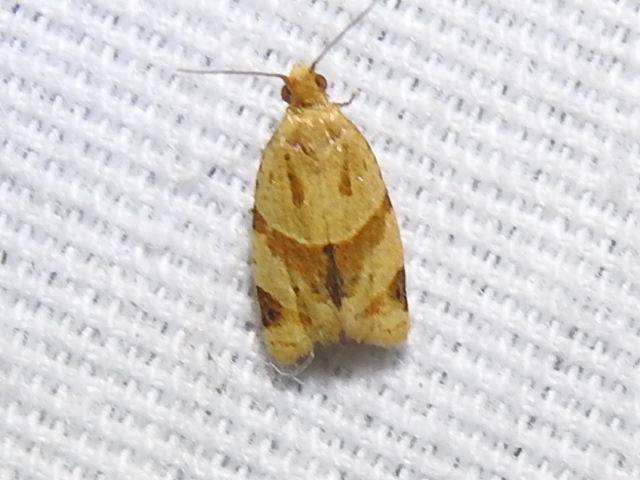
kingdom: Animalia
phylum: Arthropoda
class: Insecta
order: Lepidoptera
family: Tortricidae
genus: Clepsis
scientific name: Clepsis peritana
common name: Garden tortrix
